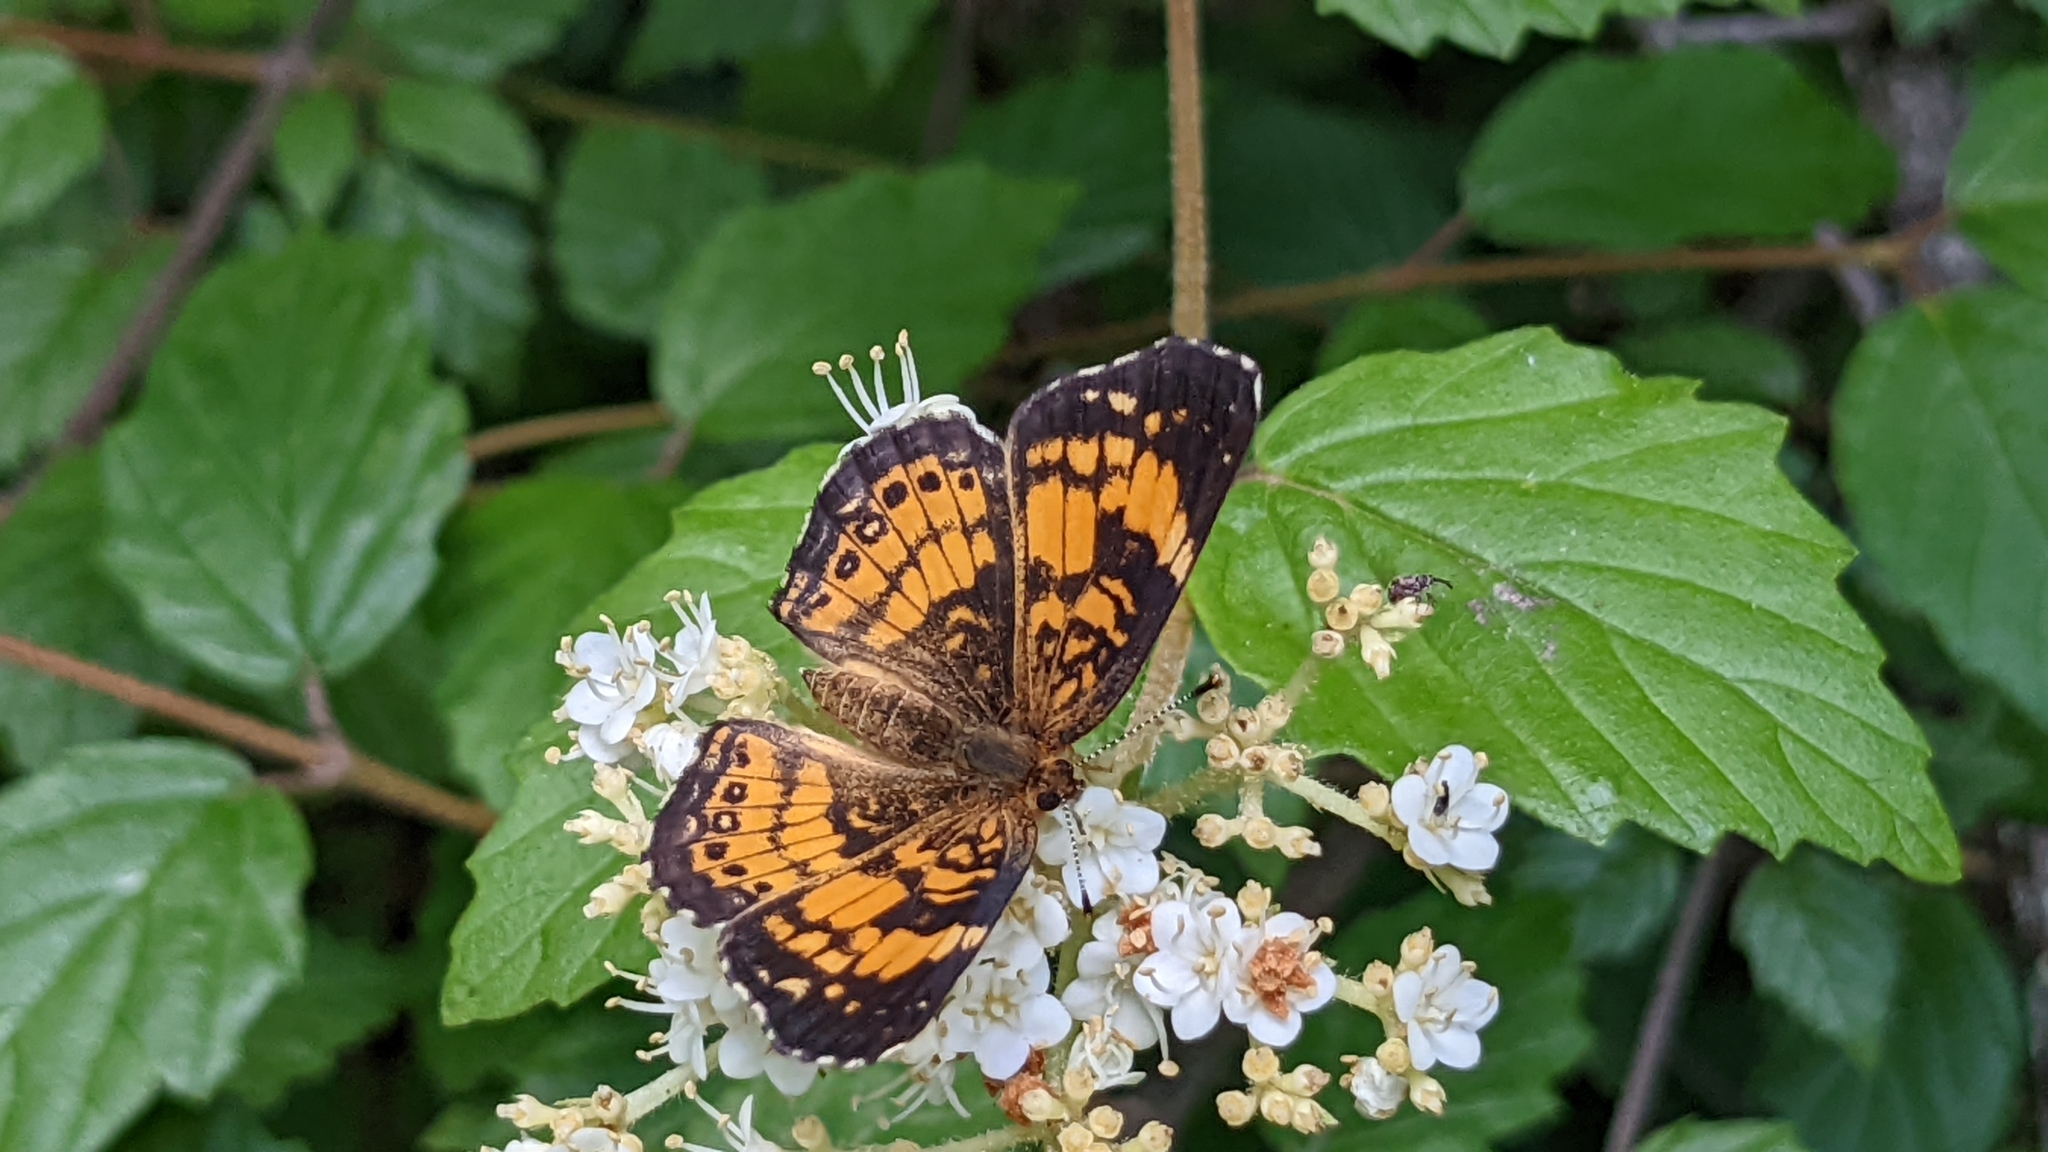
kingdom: Animalia
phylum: Arthropoda
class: Insecta
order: Lepidoptera
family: Nymphalidae
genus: Chlosyne
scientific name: Chlosyne nycteis
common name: Silvery checkerspot
